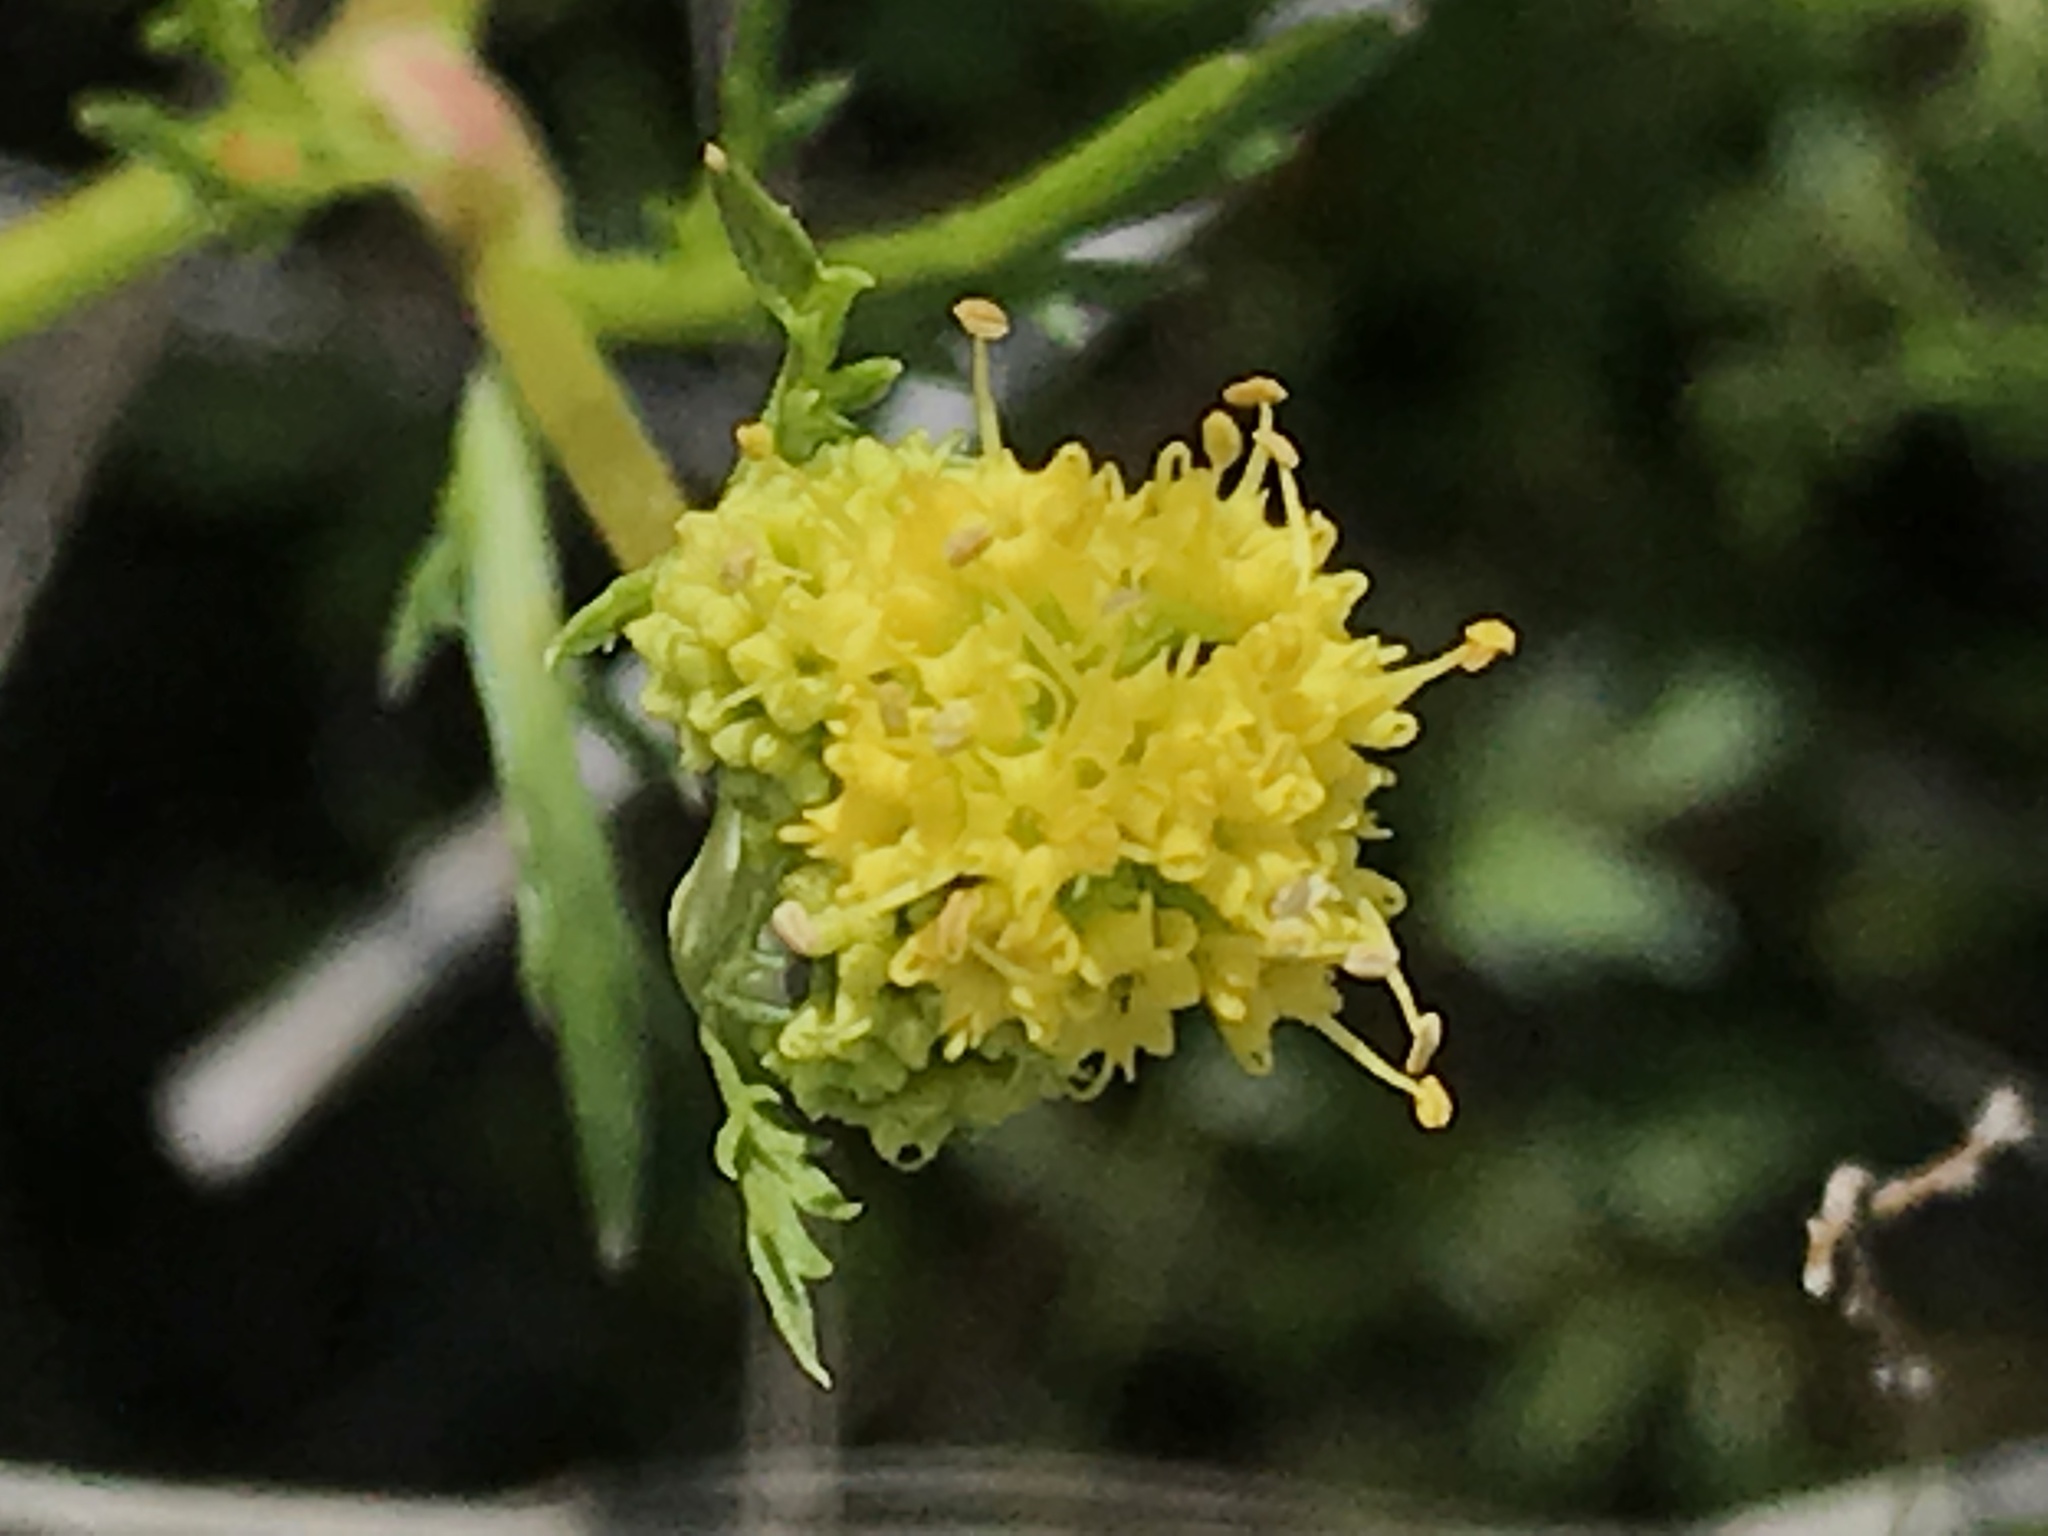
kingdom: Plantae
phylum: Tracheophyta
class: Magnoliopsida
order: Apiales
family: Apiaceae
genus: Sanicula
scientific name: Sanicula tuberosa
